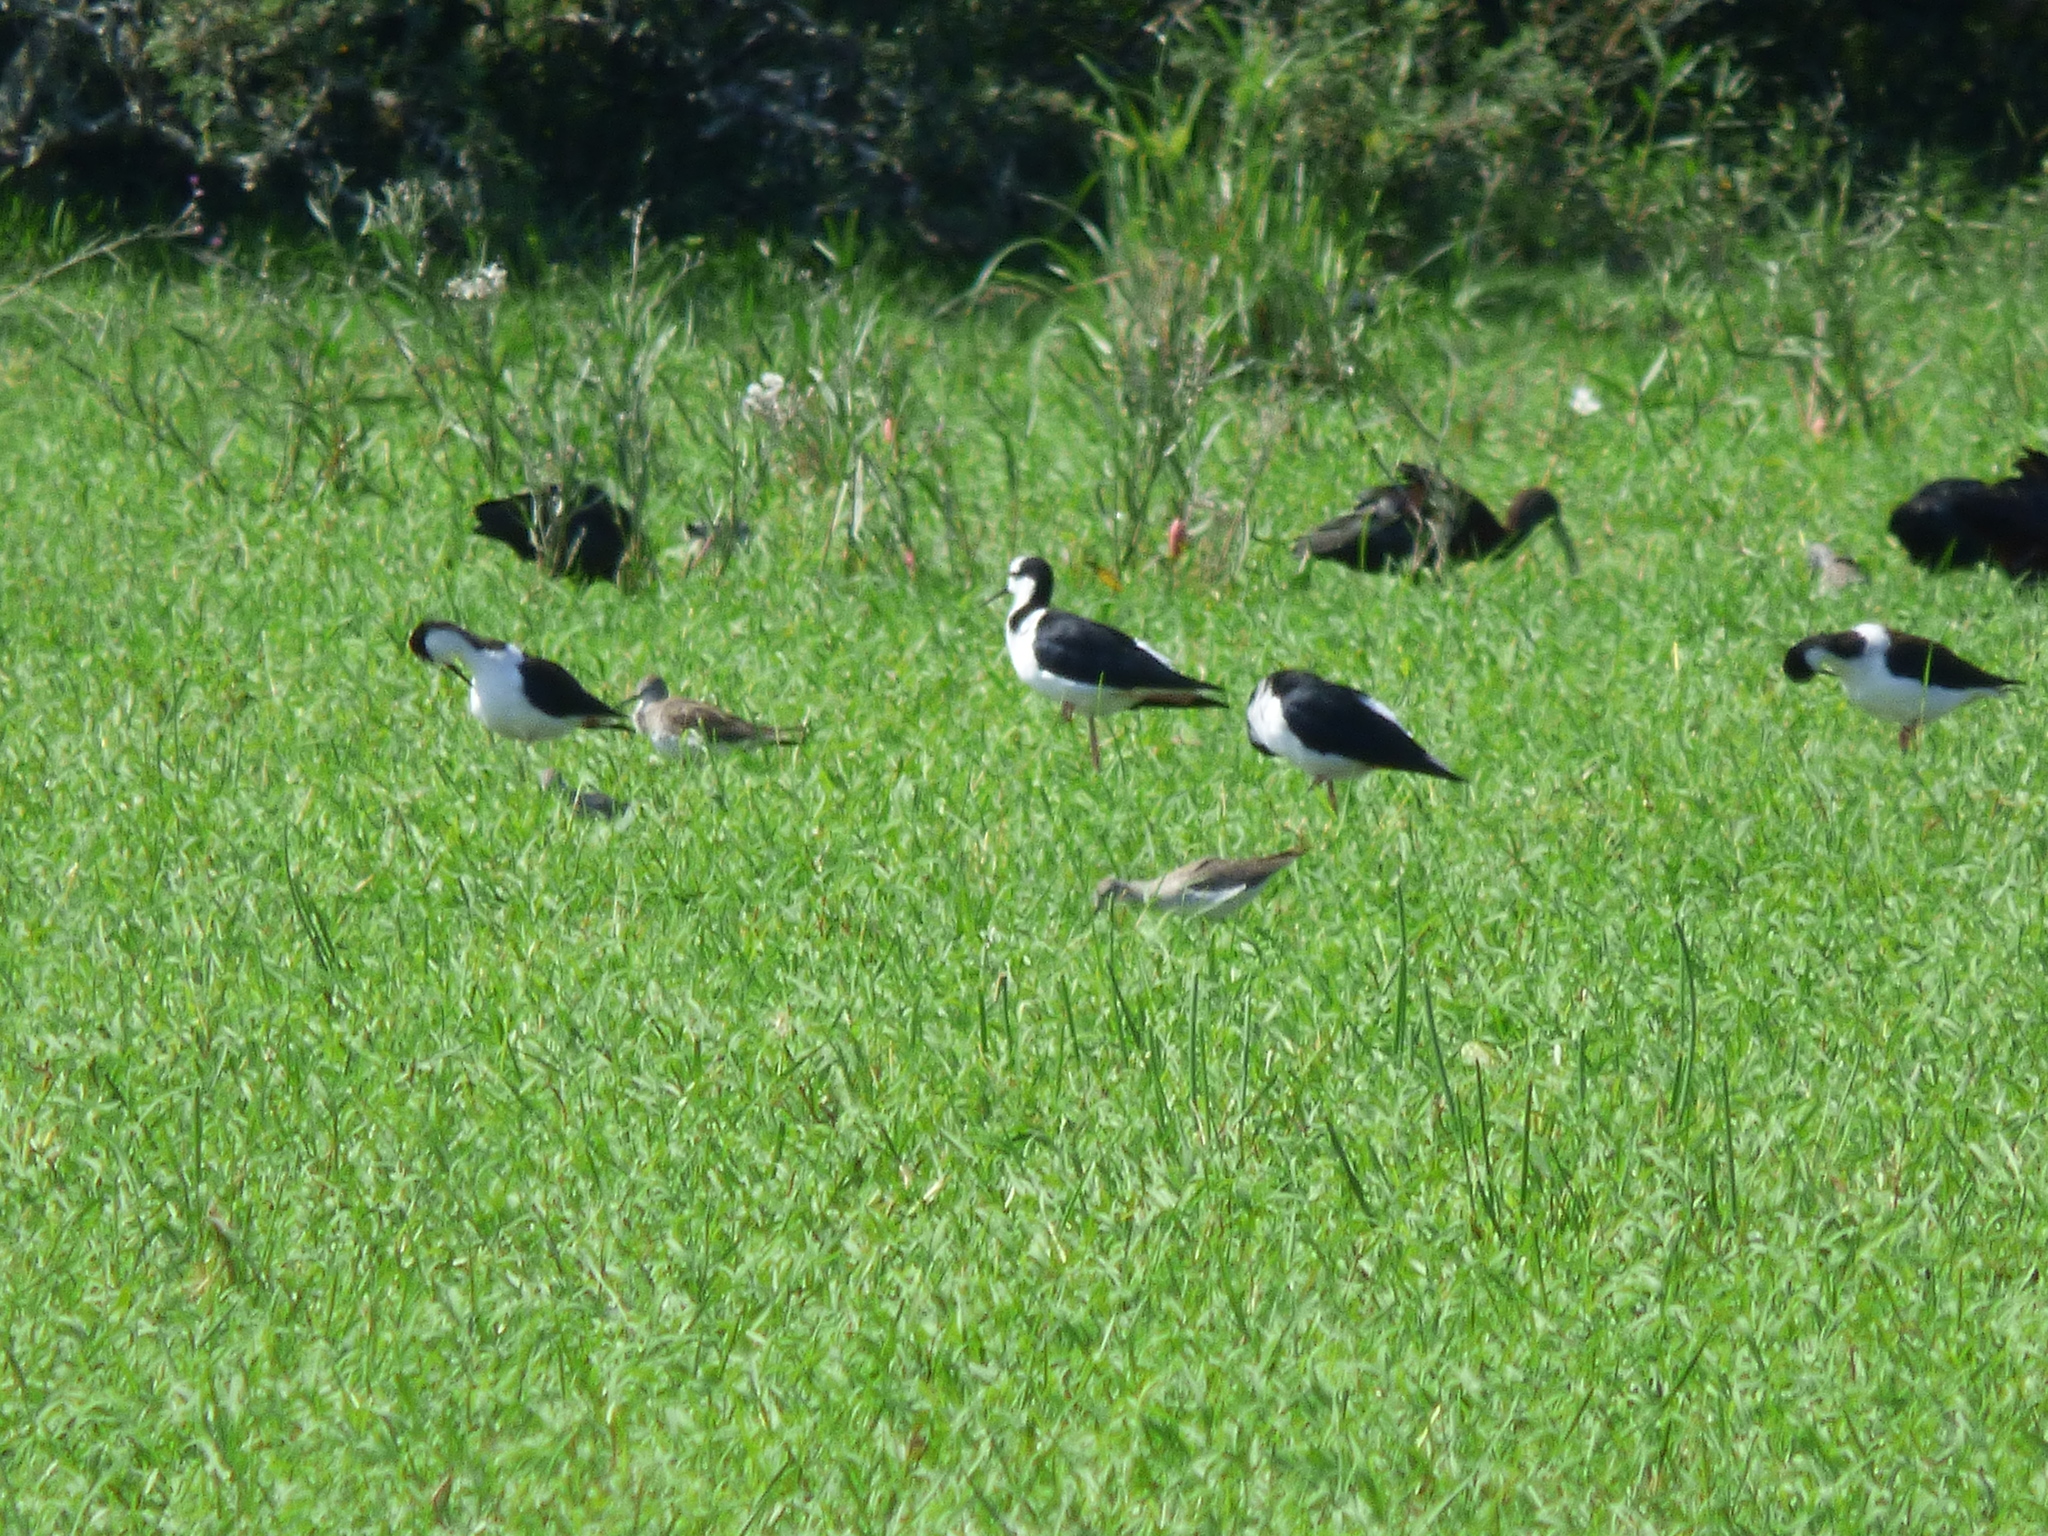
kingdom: Animalia
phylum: Chordata
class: Aves
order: Charadriiformes
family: Recurvirostridae
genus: Himantopus
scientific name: Himantopus mexicanus
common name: Black-necked stilt
